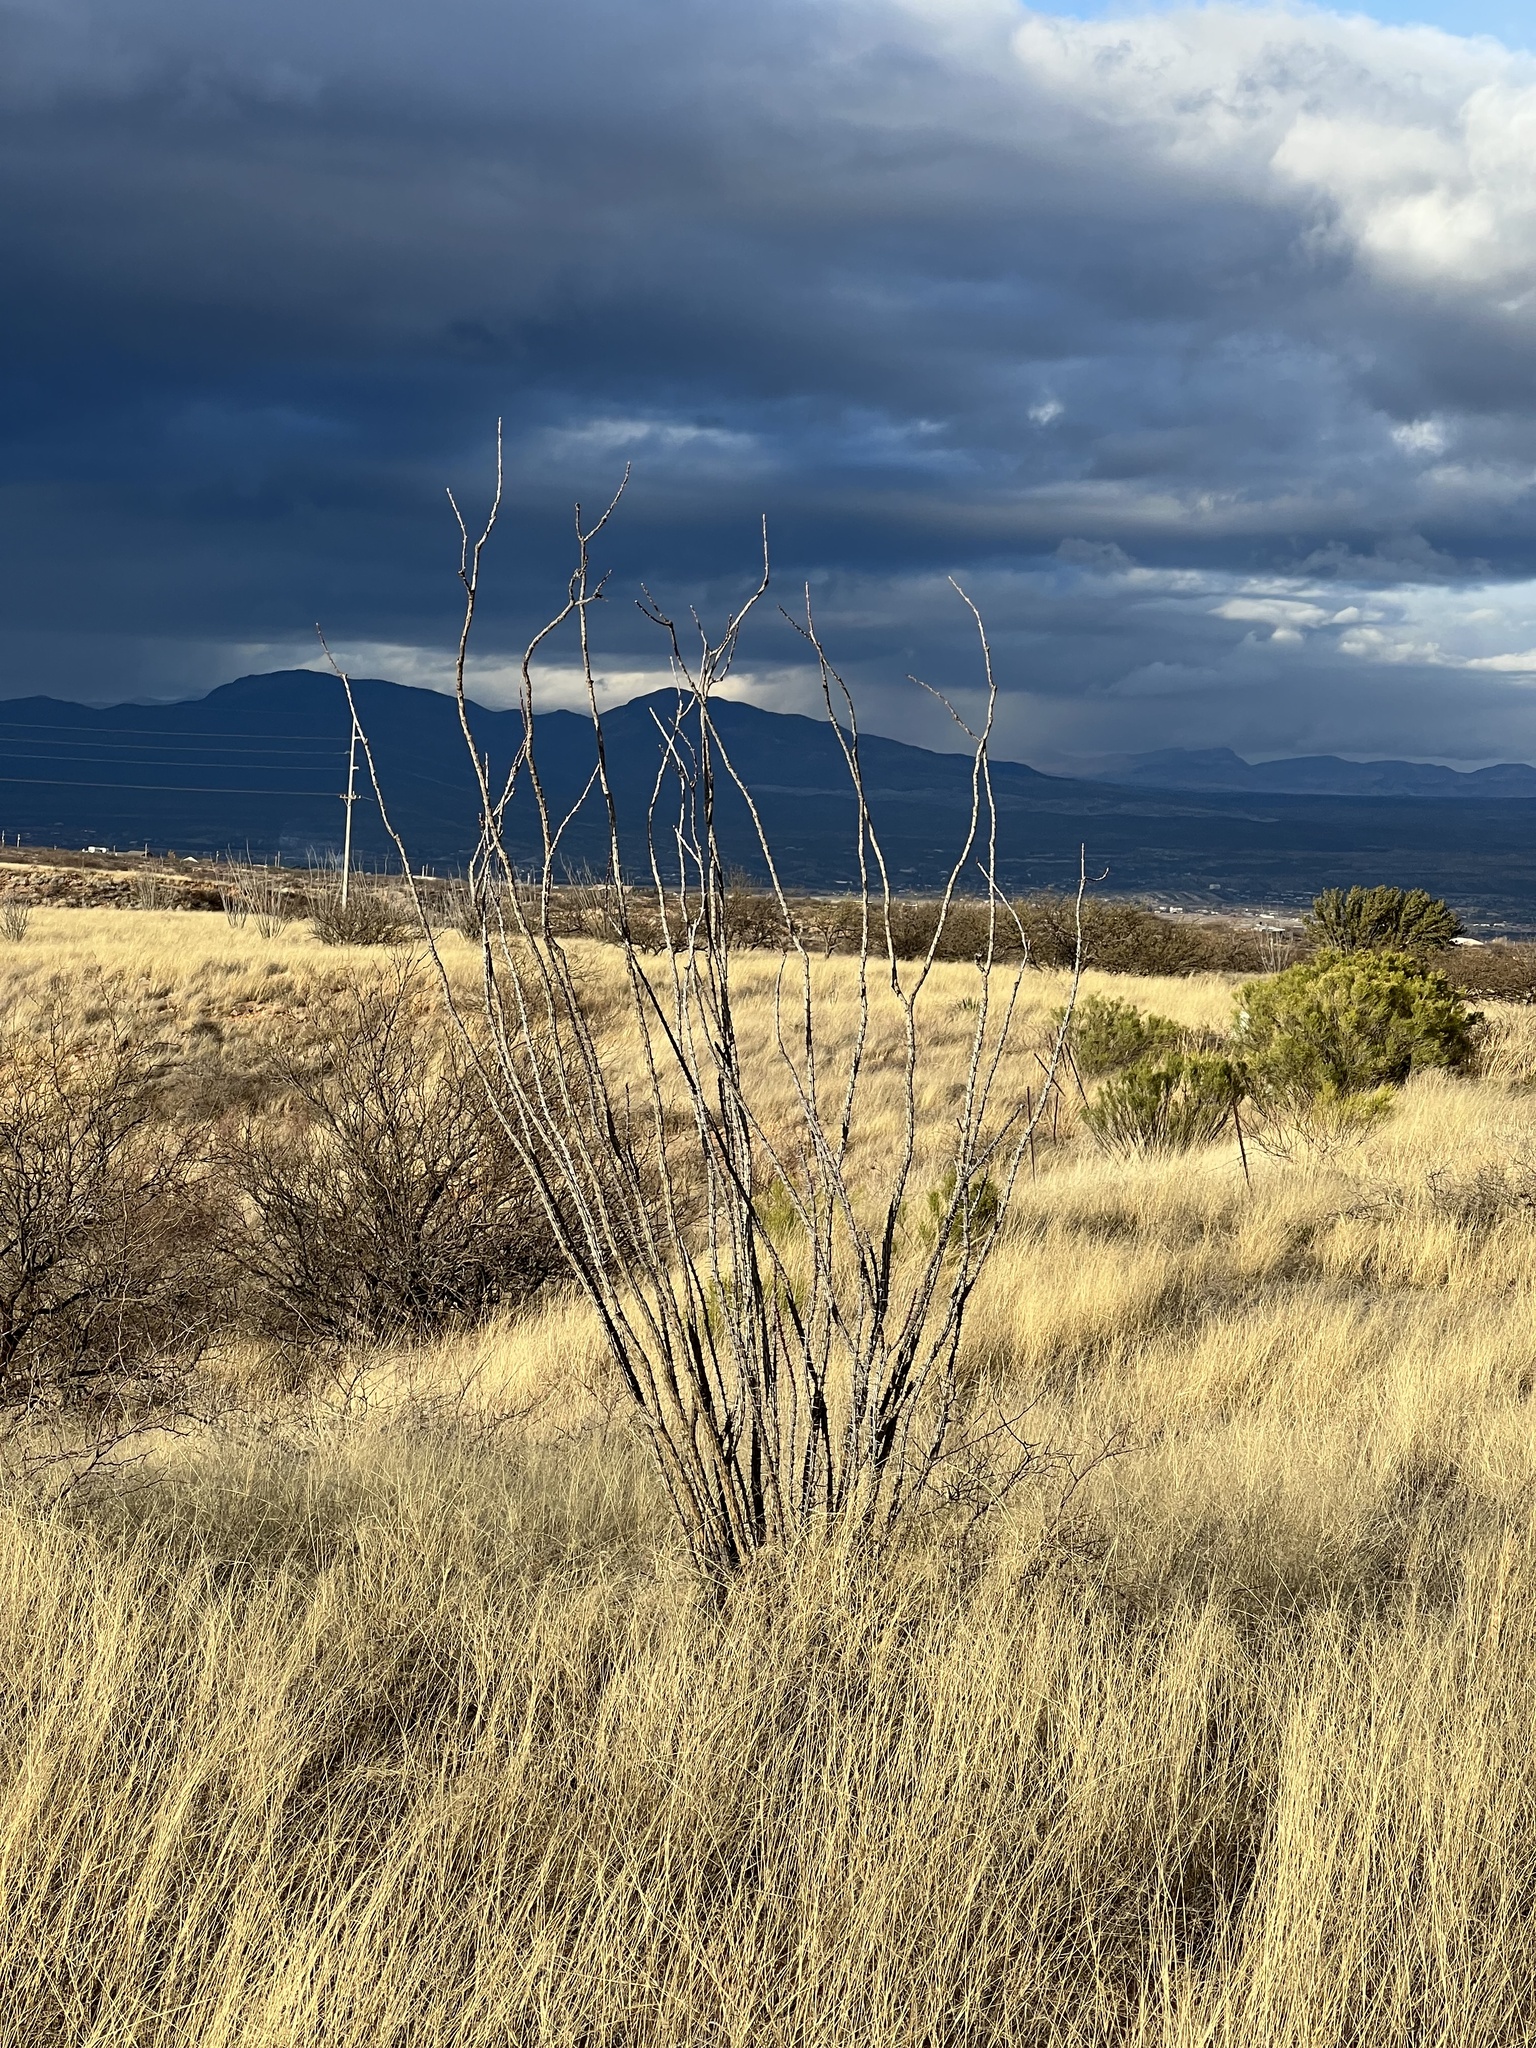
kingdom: Plantae
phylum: Tracheophyta
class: Magnoliopsida
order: Ericales
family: Fouquieriaceae
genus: Fouquieria
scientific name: Fouquieria splendens
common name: Vine-cactus
